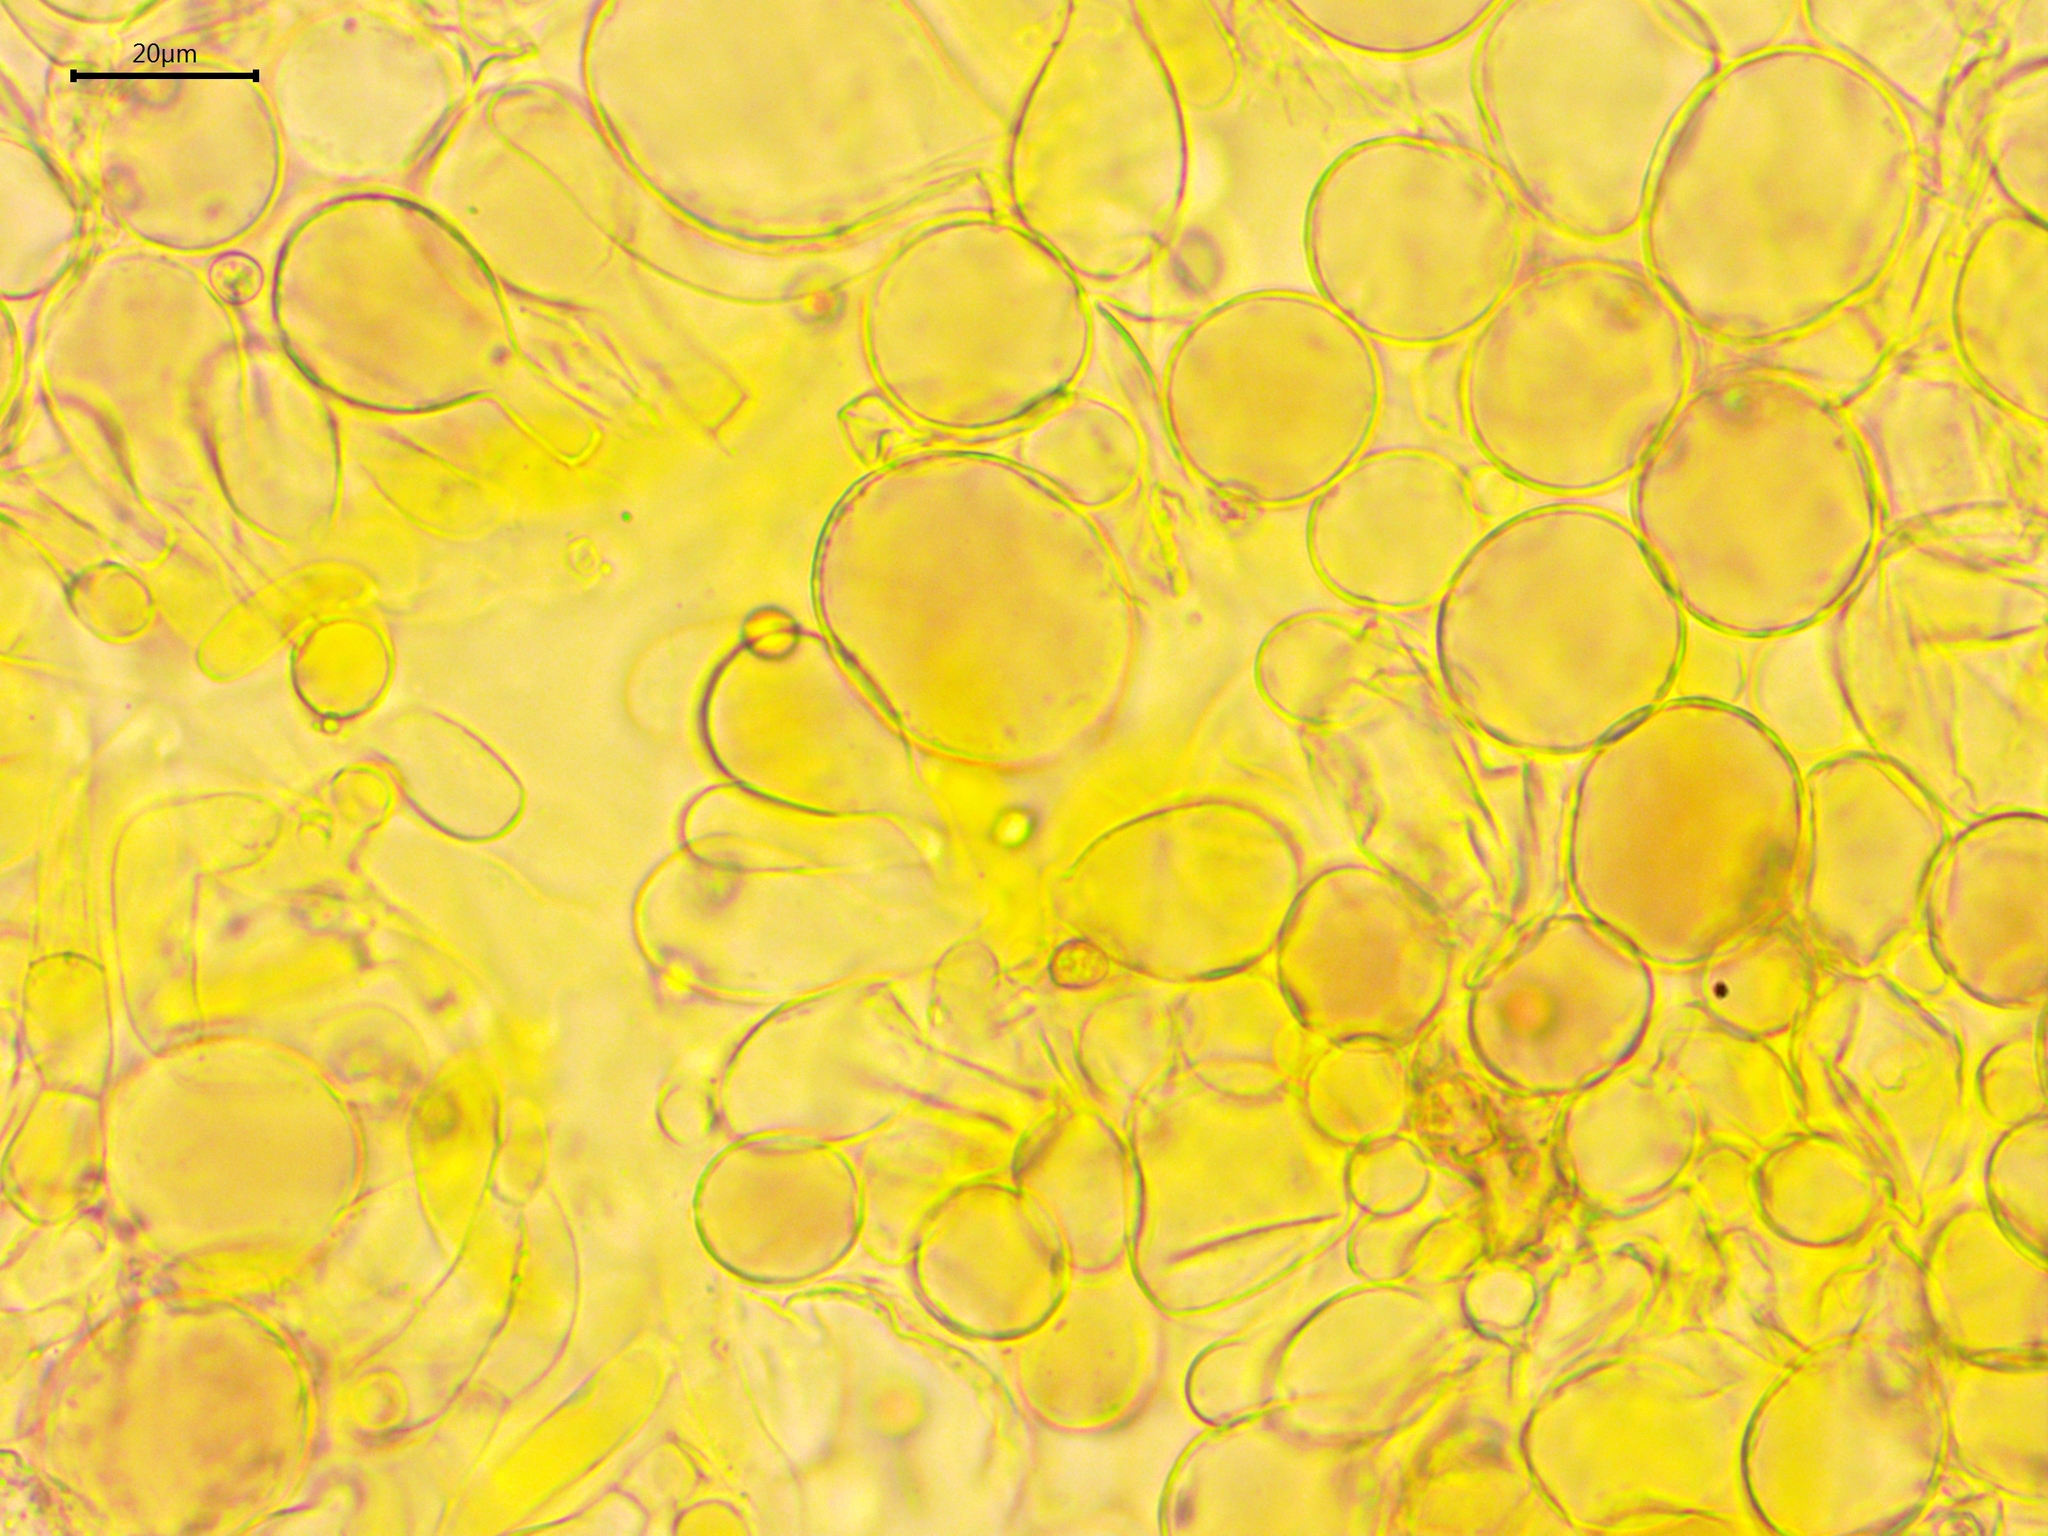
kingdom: Fungi
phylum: Basidiomycota
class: Agaricomycetes
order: Agaricales
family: Pluteaceae
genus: Pluteus
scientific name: Pluteus chrysophaeus
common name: Yellow shield
